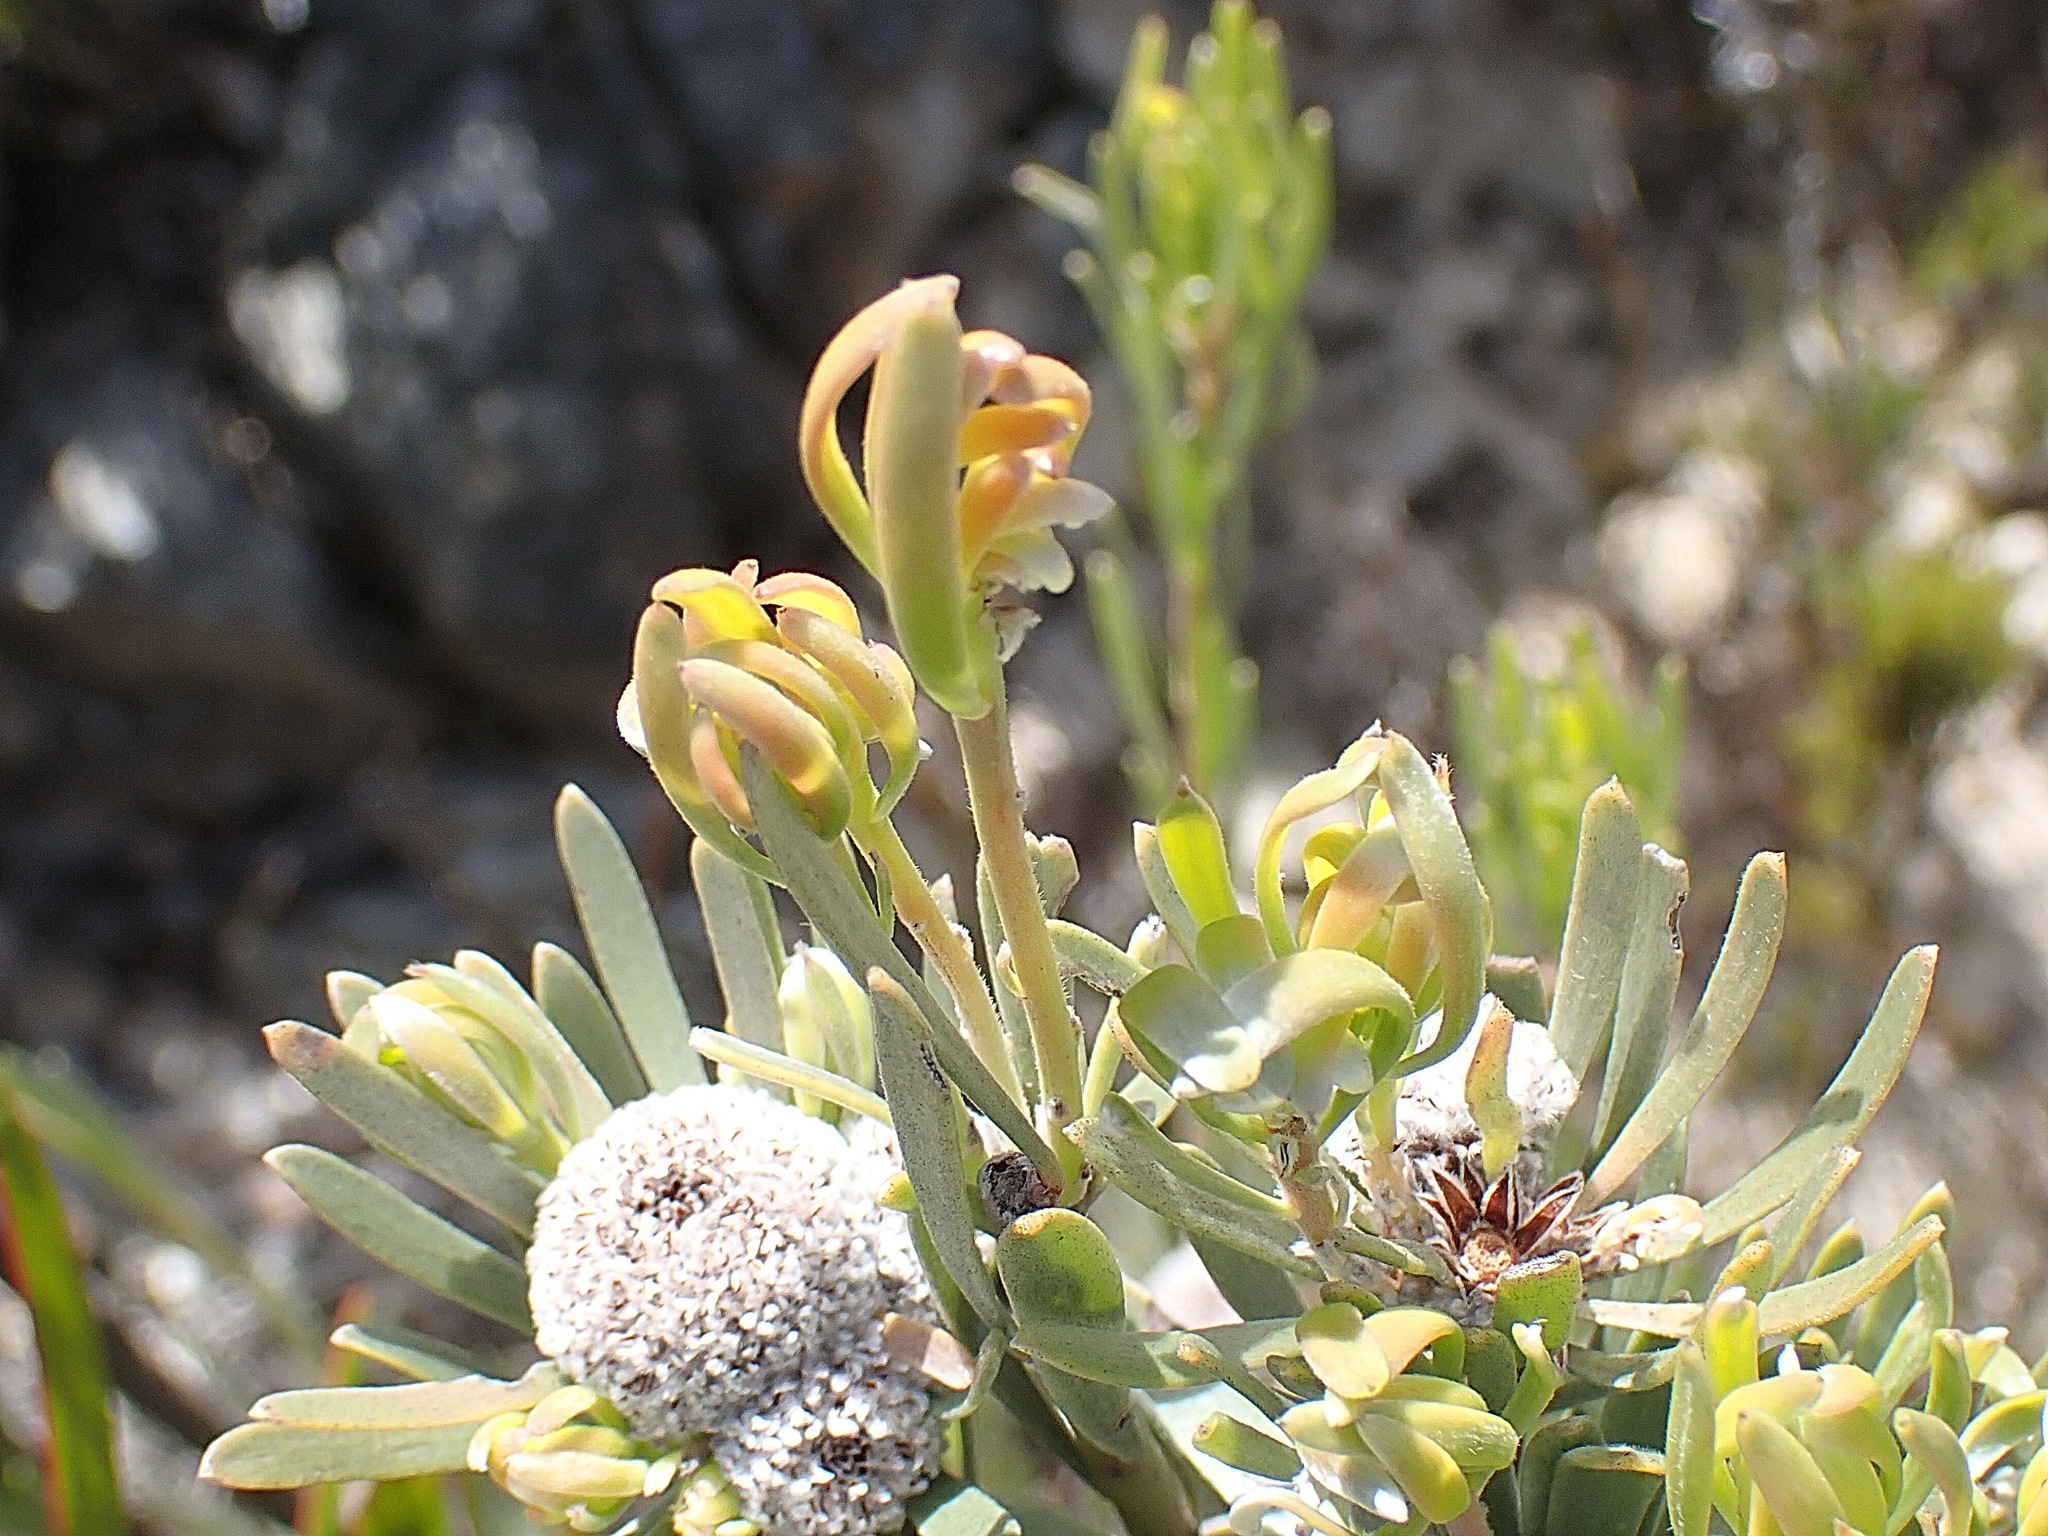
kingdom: Plantae
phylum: Tracheophyta
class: Magnoliopsida
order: Proteales
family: Proteaceae
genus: Leucadendron
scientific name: Leucadendron album
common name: Linear-leaf conebush
